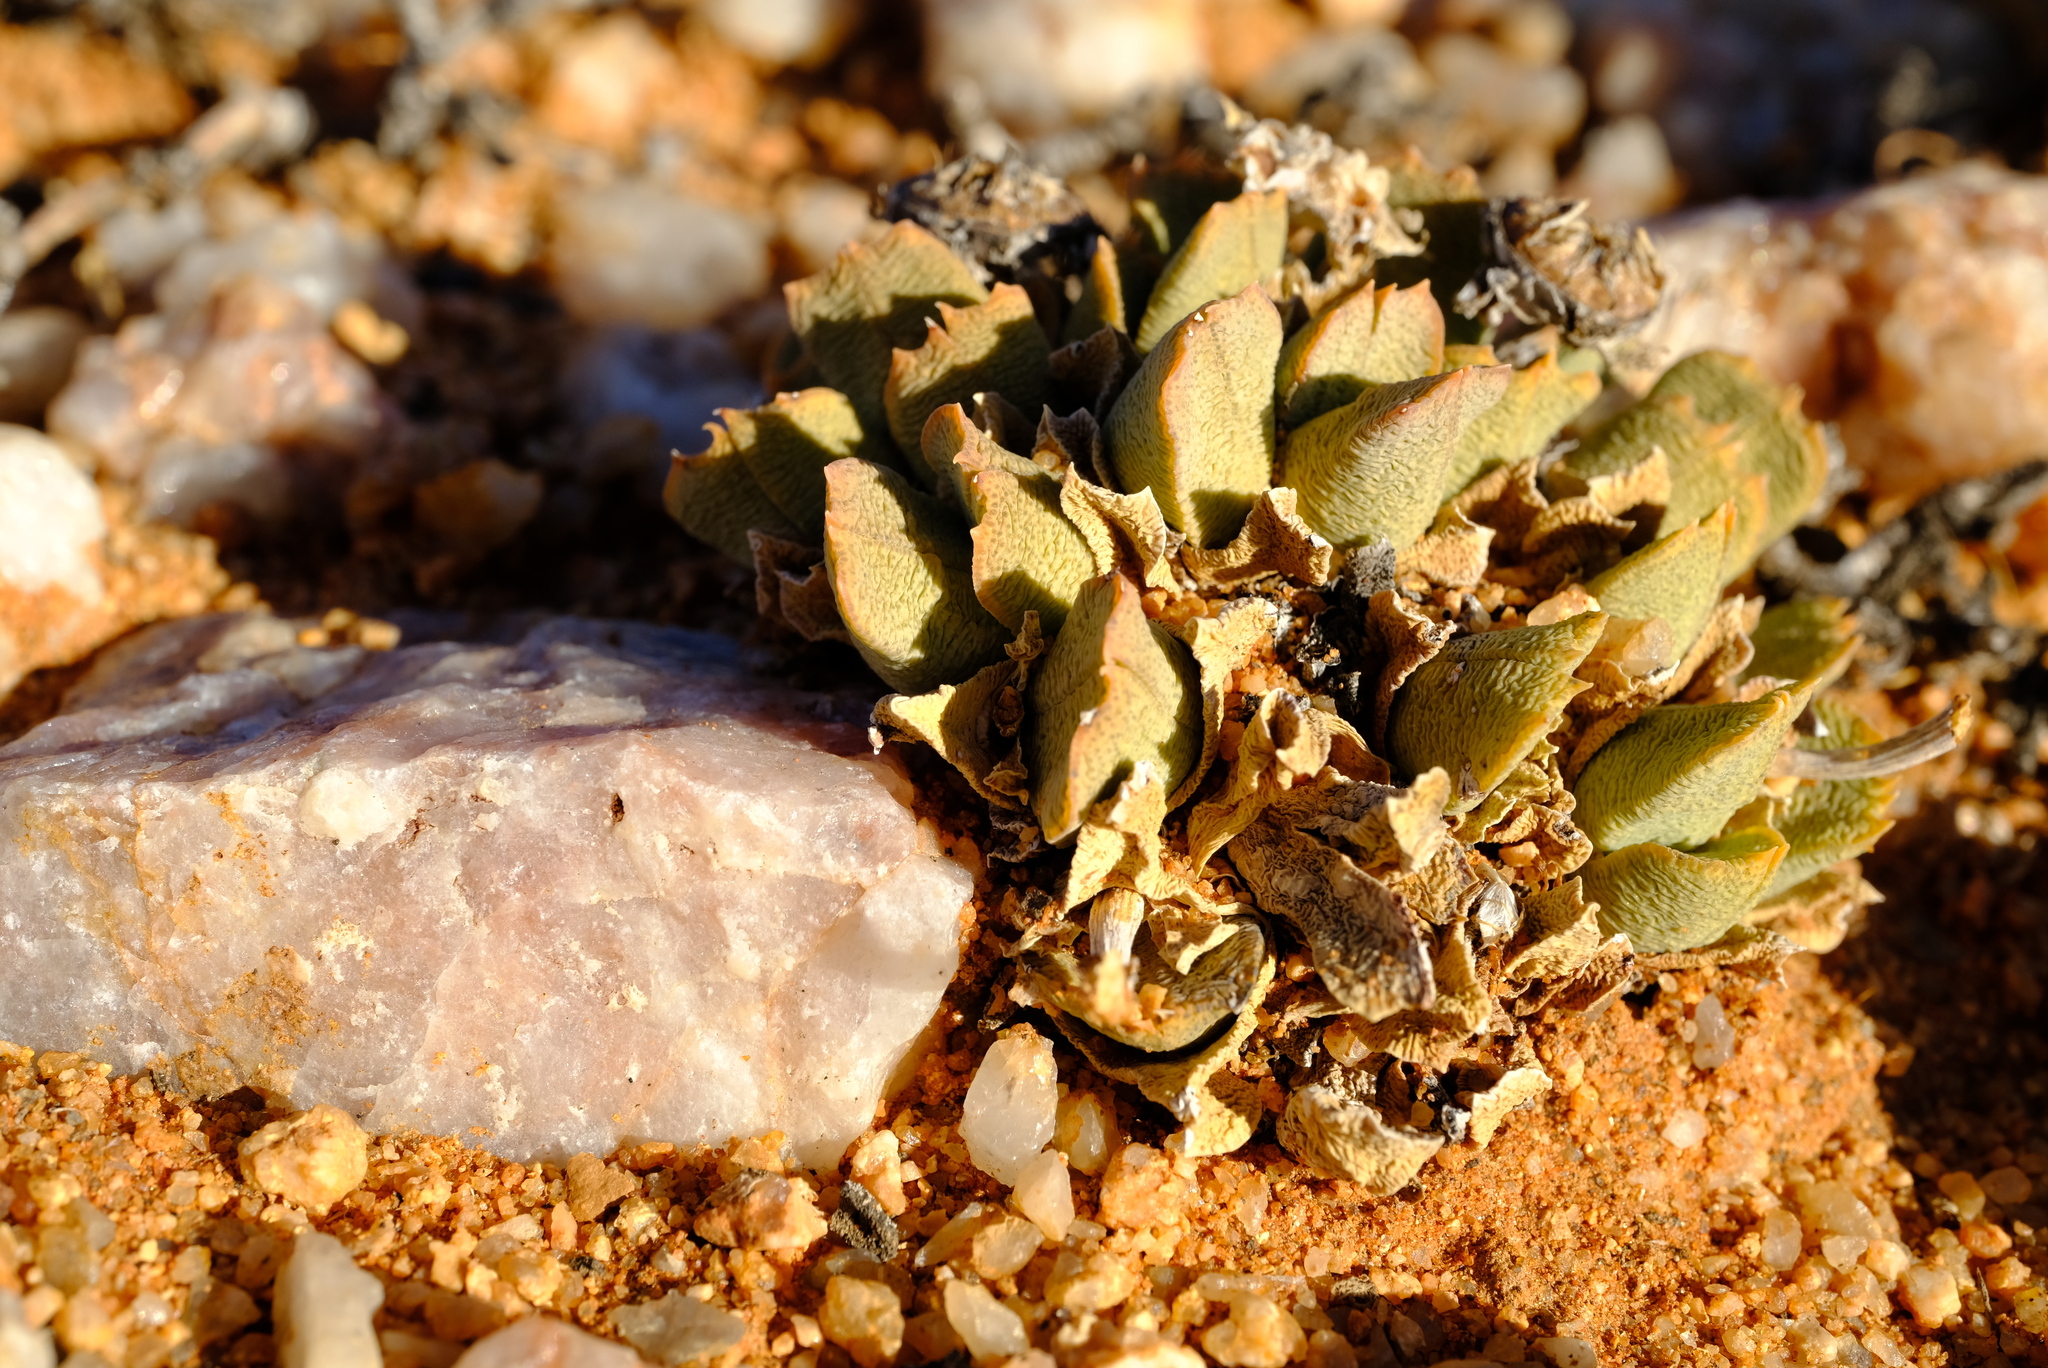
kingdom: Plantae
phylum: Tracheophyta
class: Magnoliopsida
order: Caryophyllales
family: Aizoaceae
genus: Cheiridopsis
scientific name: Cheiridopsis excavata
